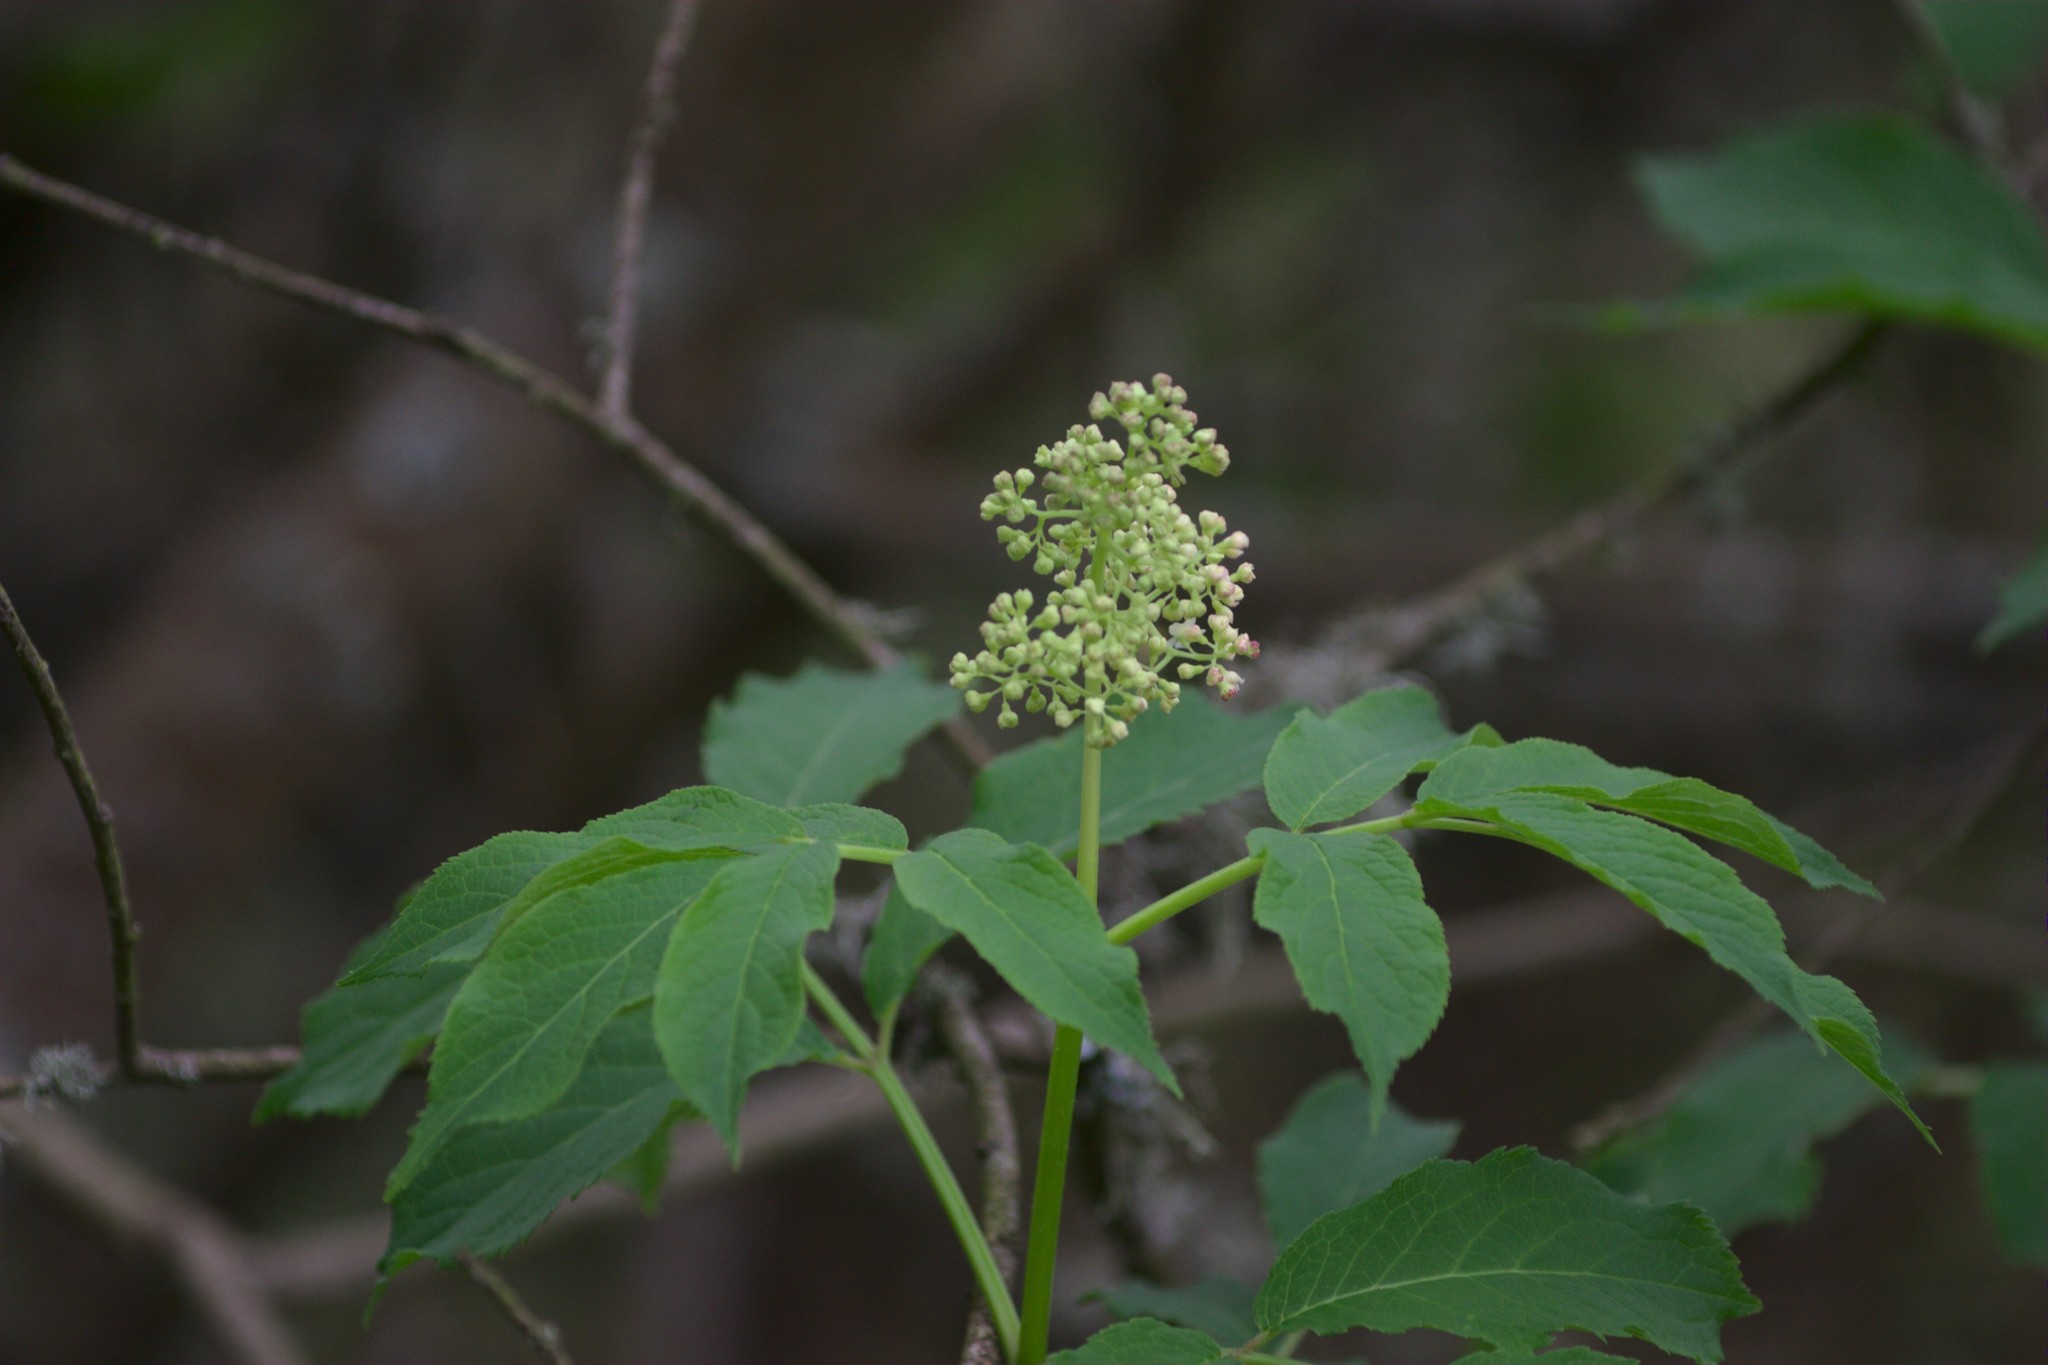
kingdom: Plantae
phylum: Tracheophyta
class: Magnoliopsida
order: Dipsacales
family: Viburnaceae
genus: Sambucus
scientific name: Sambucus racemosa
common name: Red-berried elder
